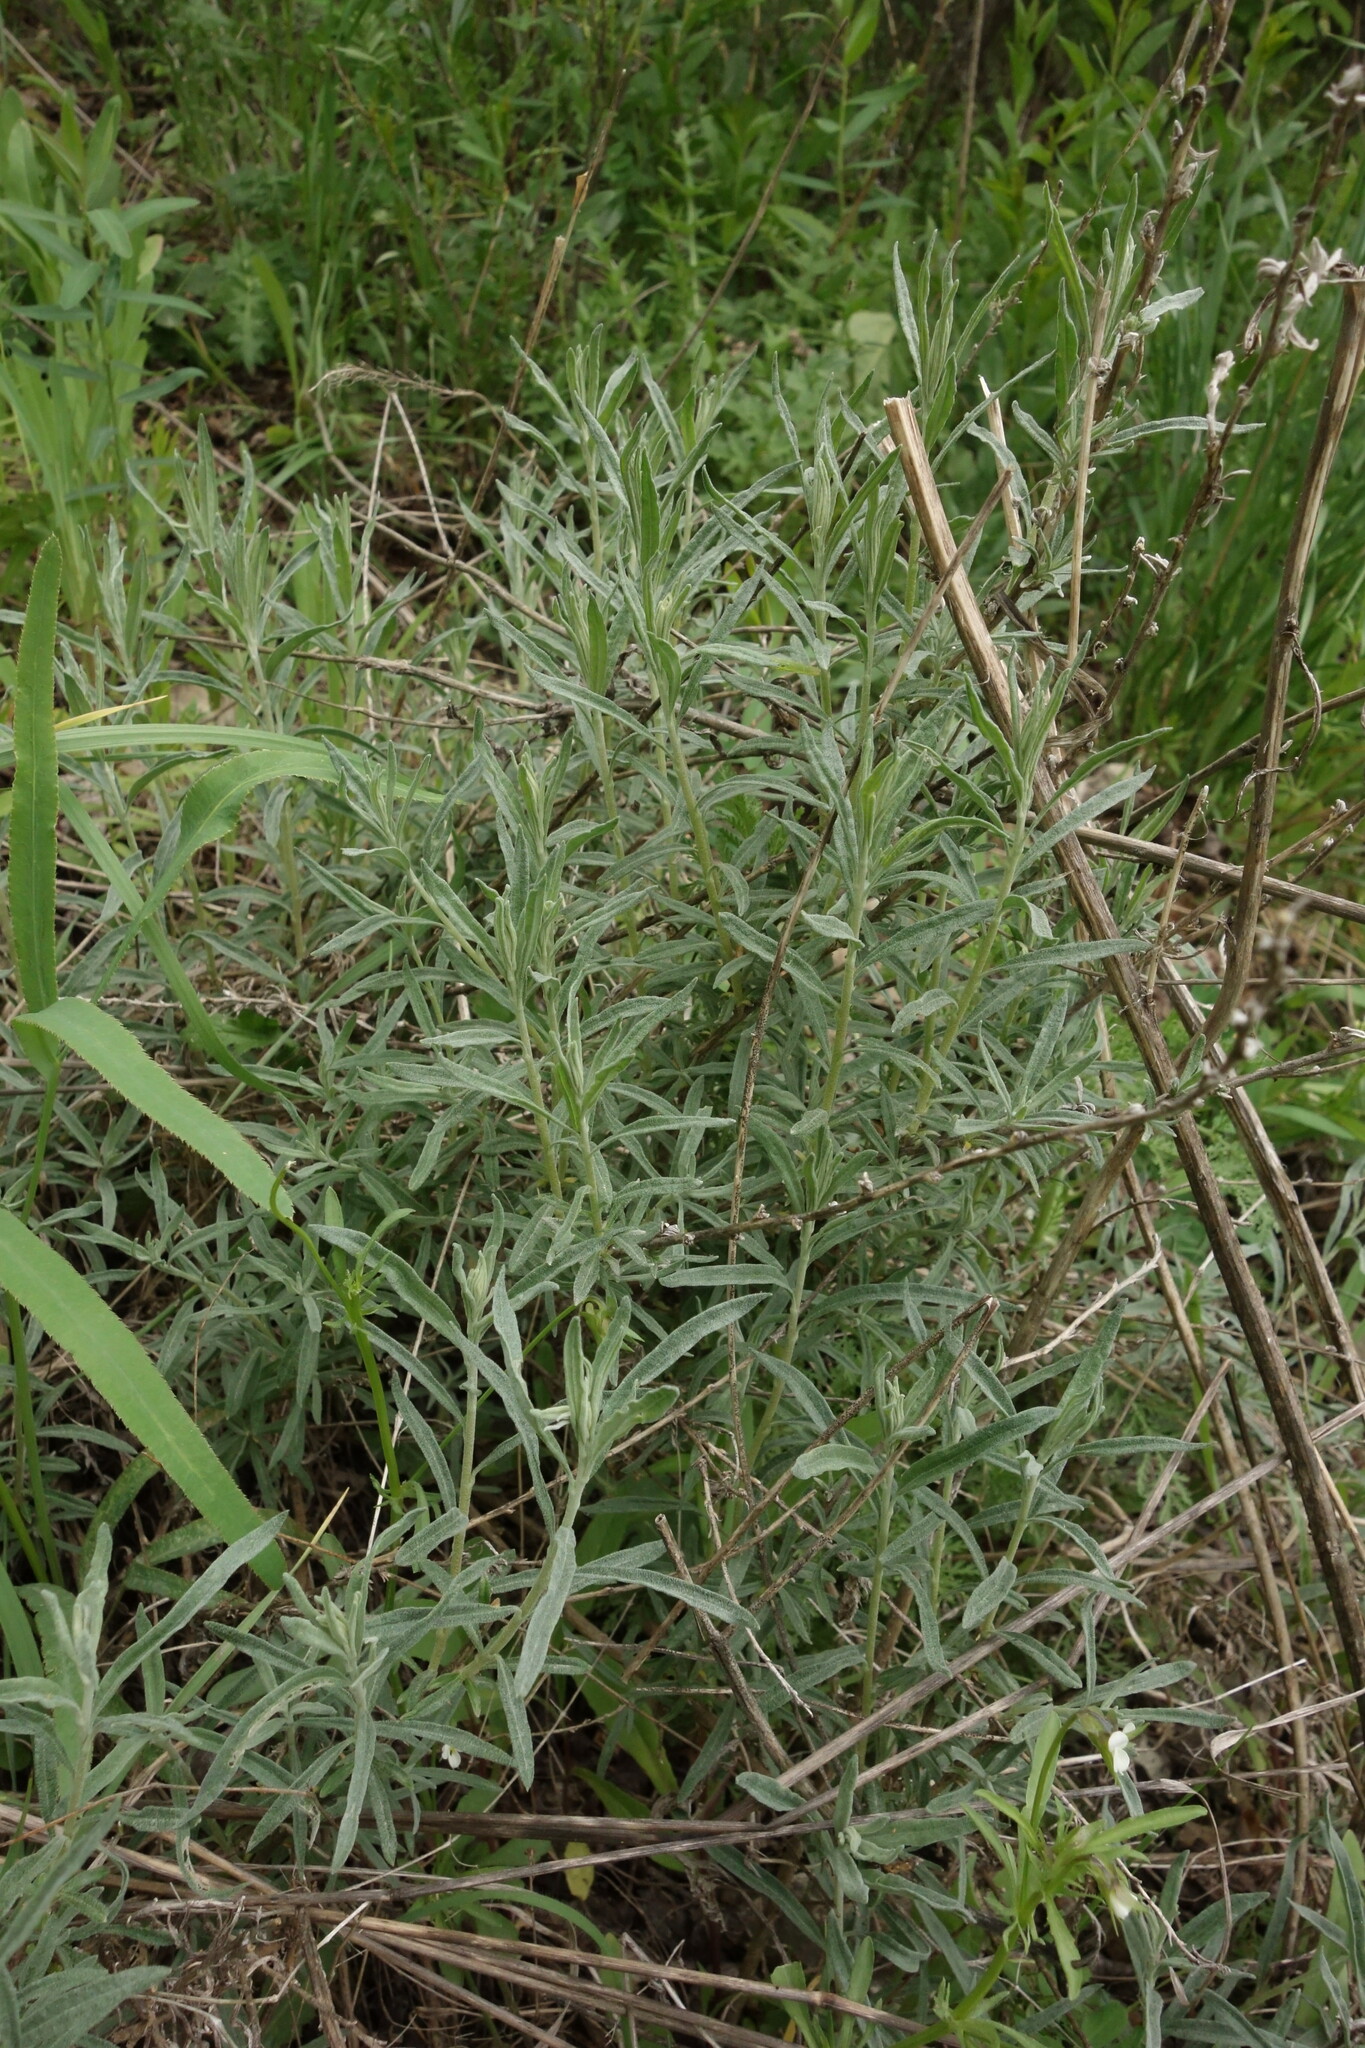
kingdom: Plantae
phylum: Tracheophyta
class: Magnoliopsida
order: Caryophyllales
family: Amaranthaceae
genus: Krascheninnikovia
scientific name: Krascheninnikovia ceratoides
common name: Pamirian winterfat
